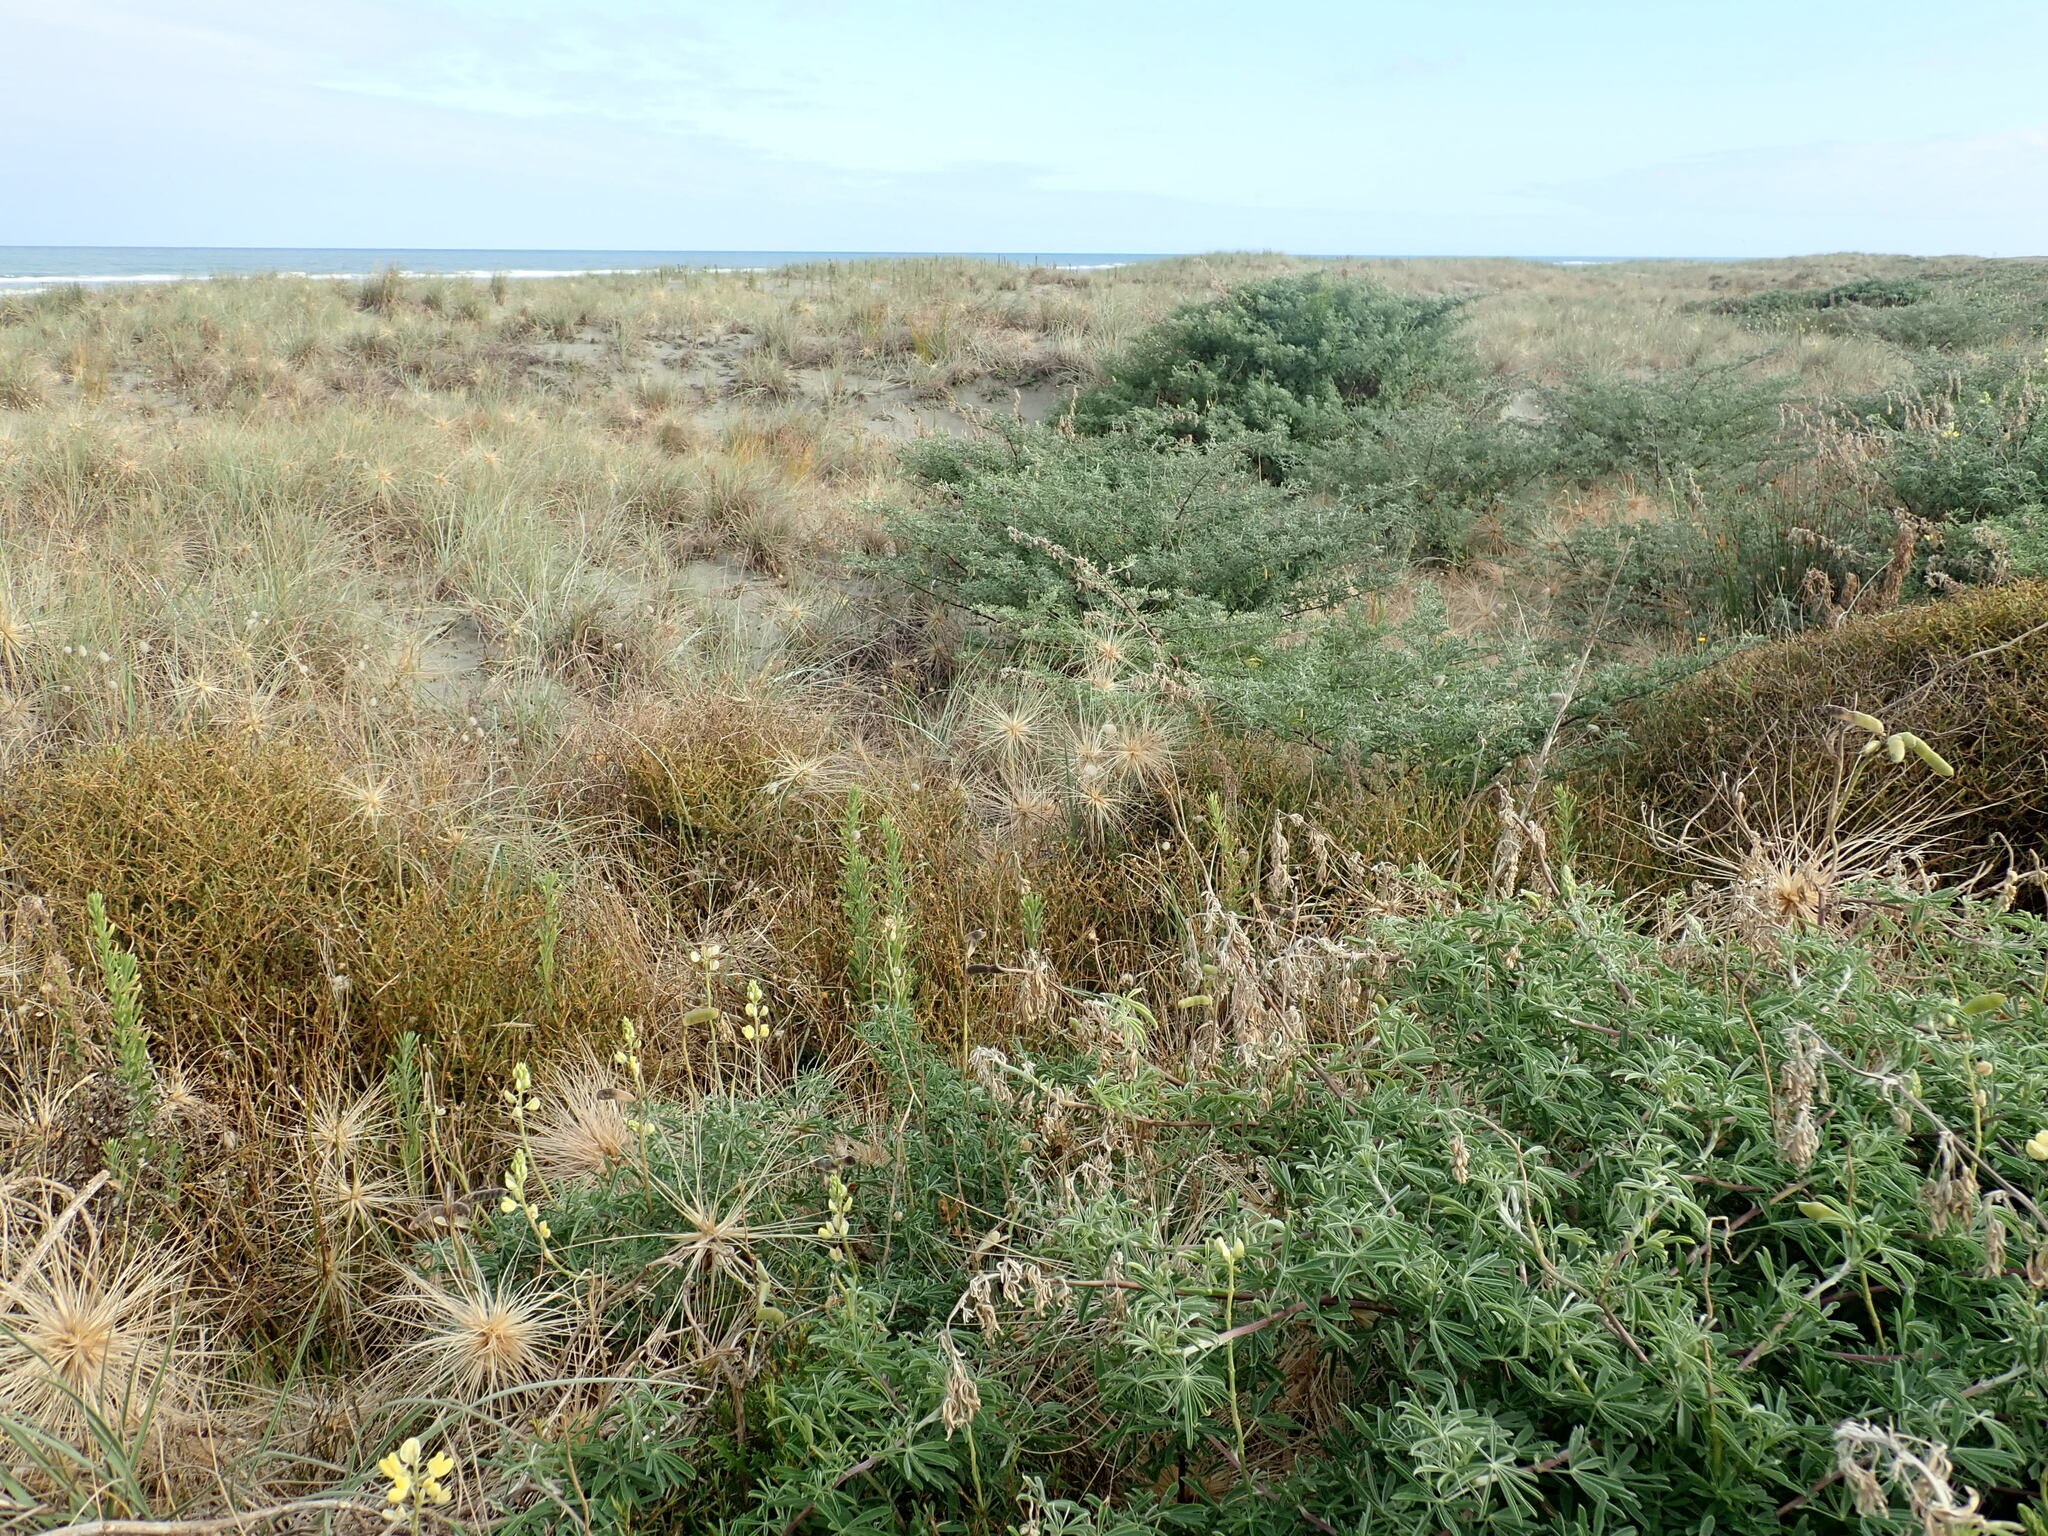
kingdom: Plantae
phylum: Tracheophyta
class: Magnoliopsida
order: Gentianales
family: Rubiaceae
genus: Coprosma
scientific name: Coprosma acerosa
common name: Sand coprosma
